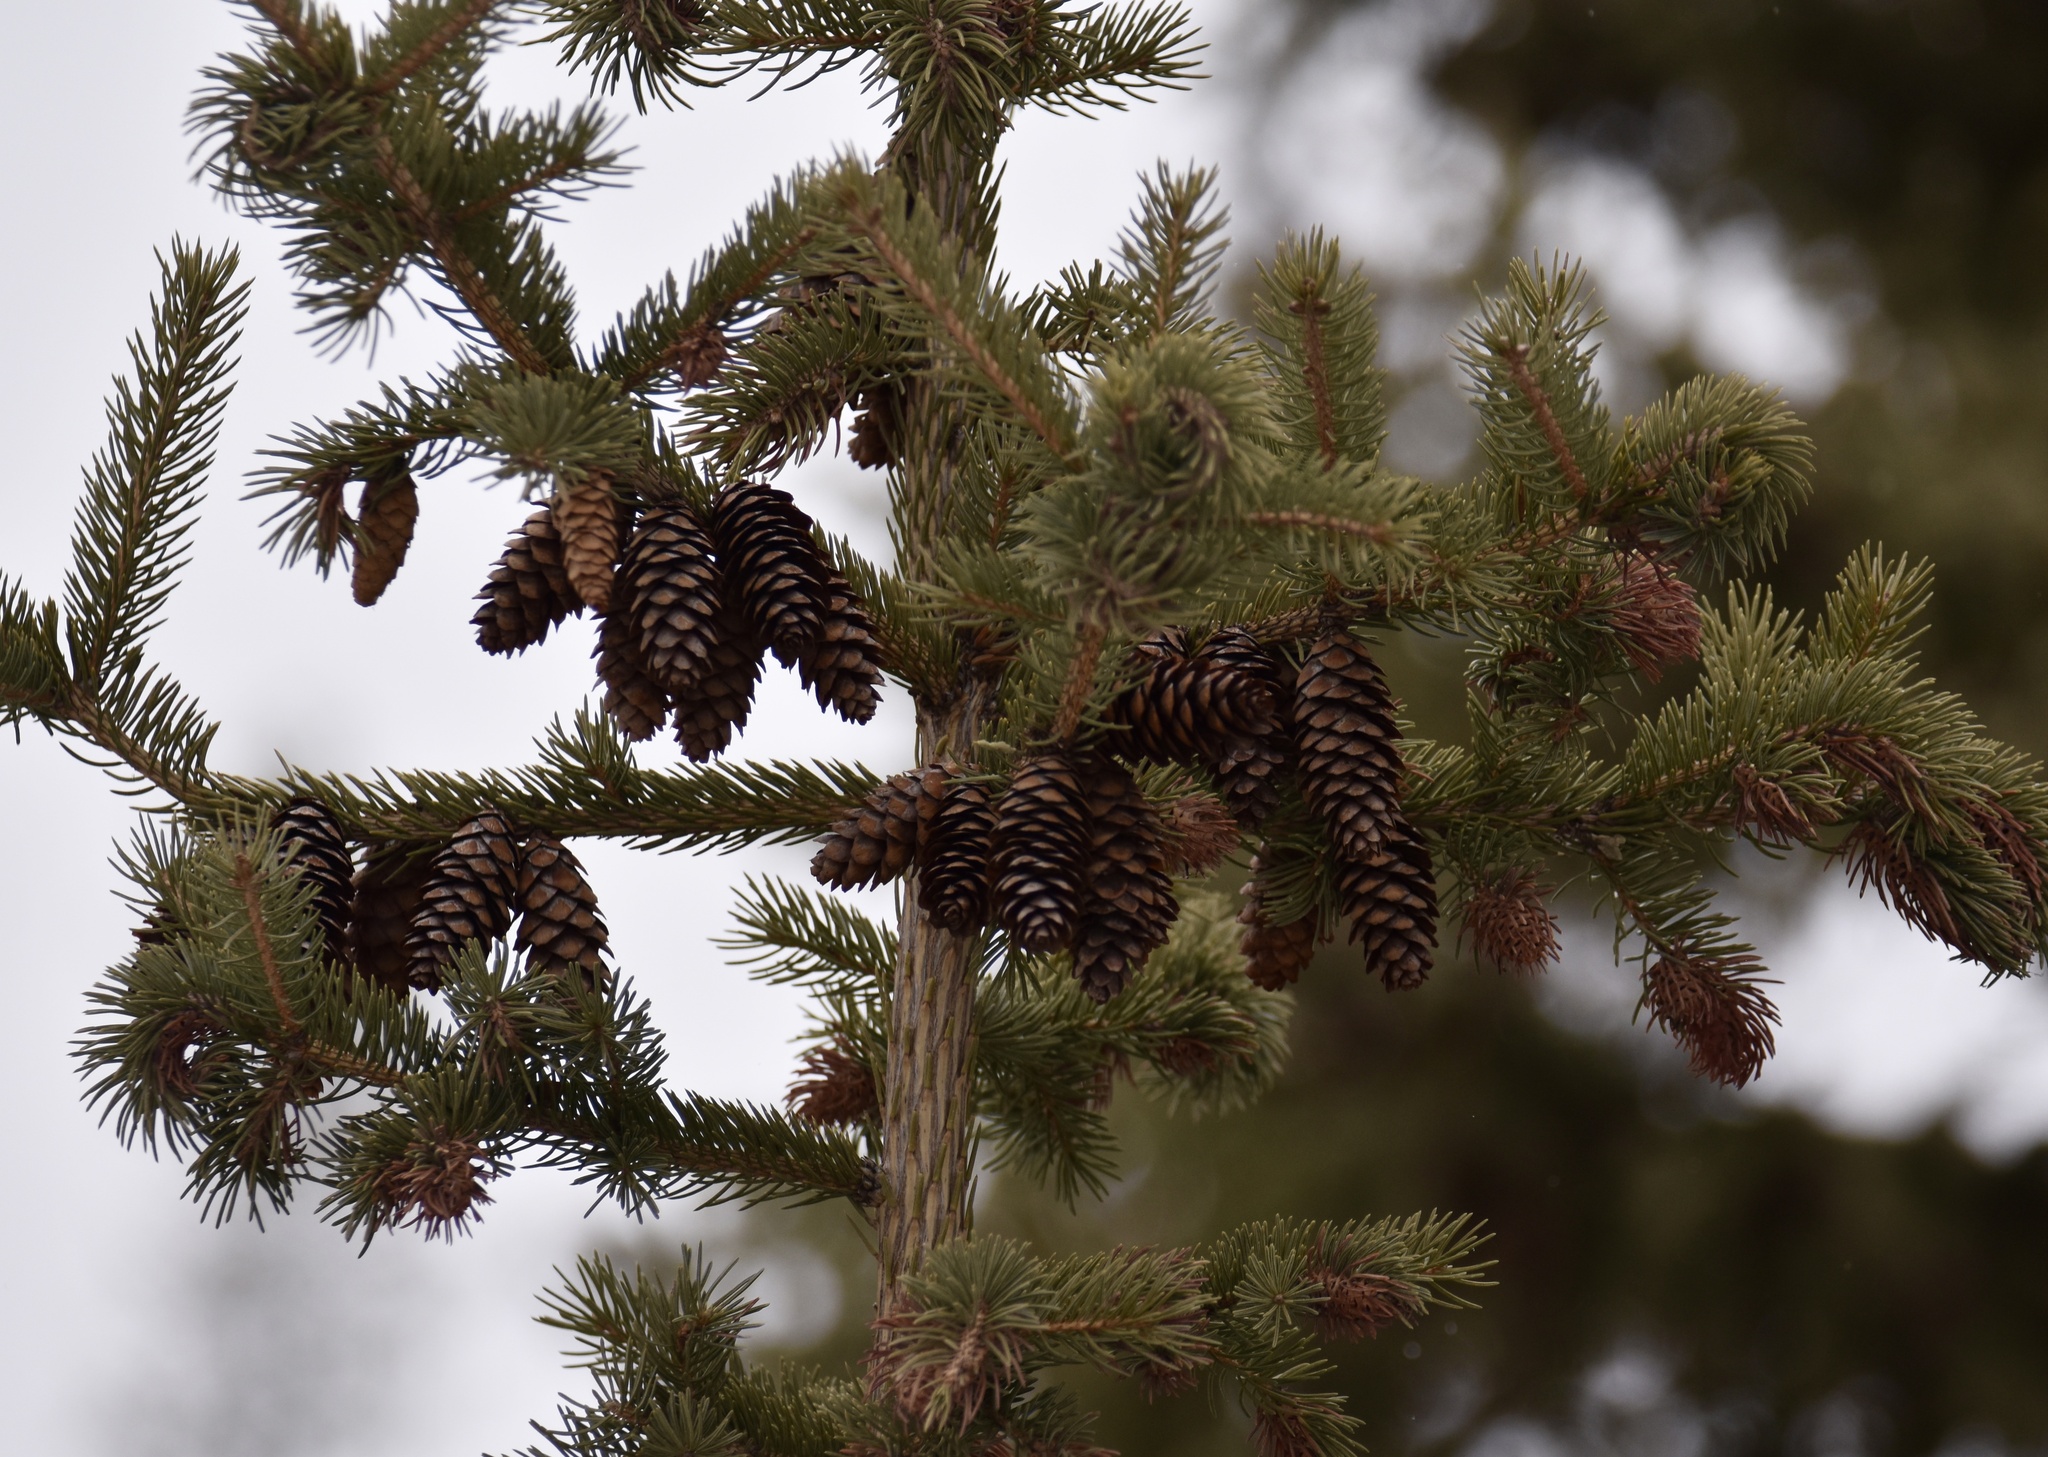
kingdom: Plantae
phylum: Tracheophyta
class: Pinopsida
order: Pinales
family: Pinaceae
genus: Picea
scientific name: Picea engelmannii
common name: Engelmann spruce
